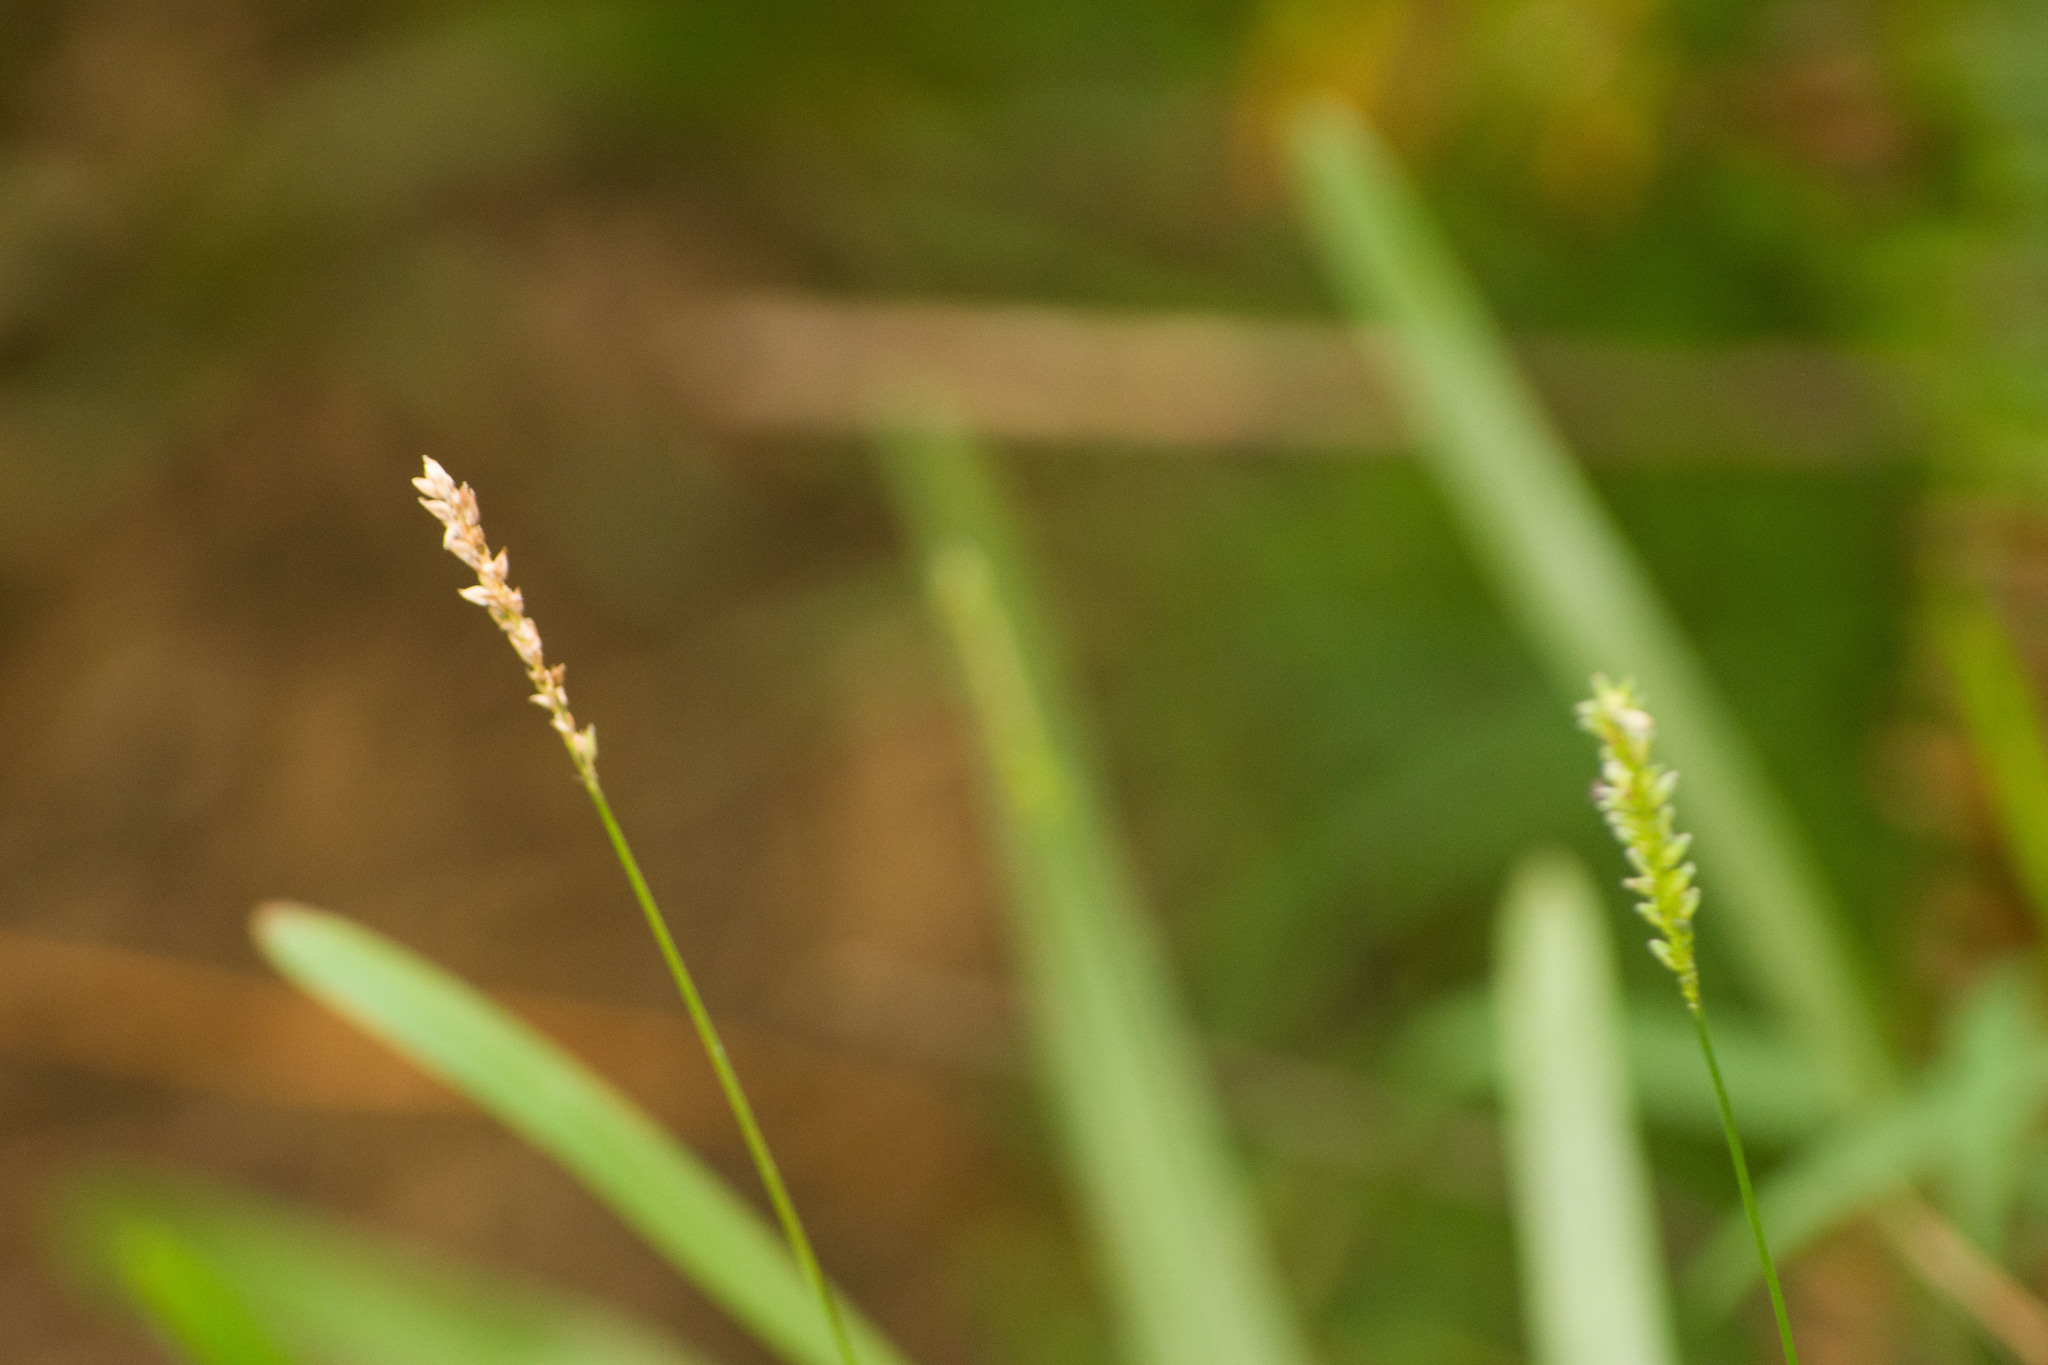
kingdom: Plantae
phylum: Tracheophyta
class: Liliopsida
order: Poales
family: Poaceae
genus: Sacciolepis
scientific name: Sacciolepis indica
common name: Glenwoodgrass
